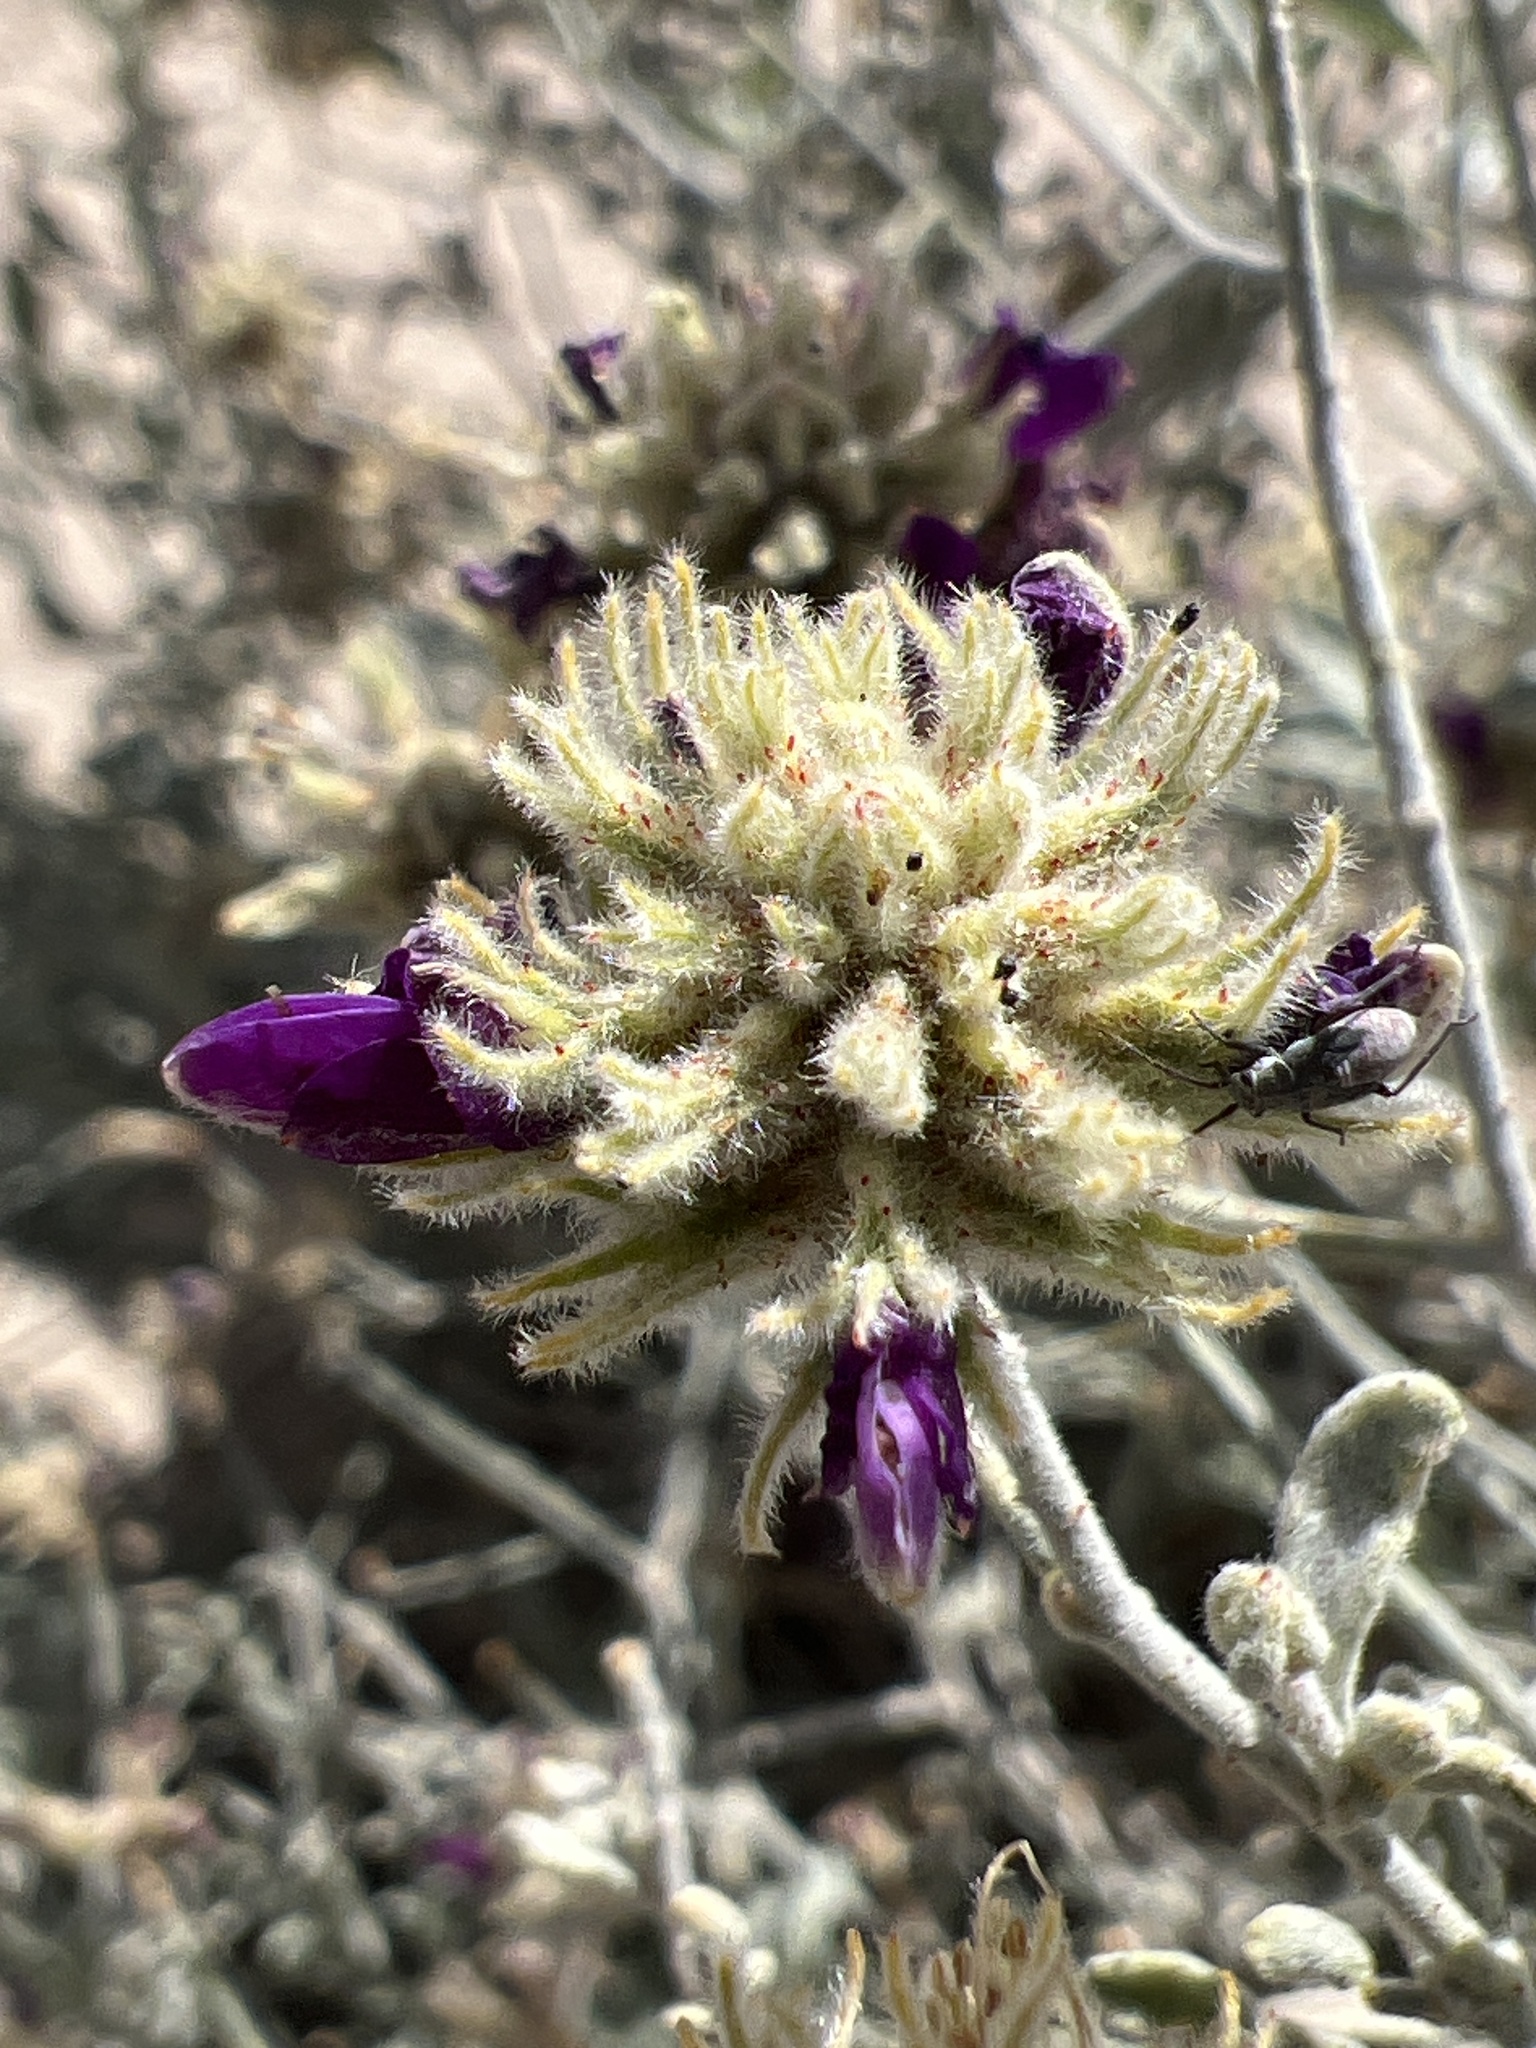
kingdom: Plantae
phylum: Tracheophyta
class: Magnoliopsida
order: Fabales
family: Fabaceae
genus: Psorothamnus
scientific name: Psorothamnus emoryi
